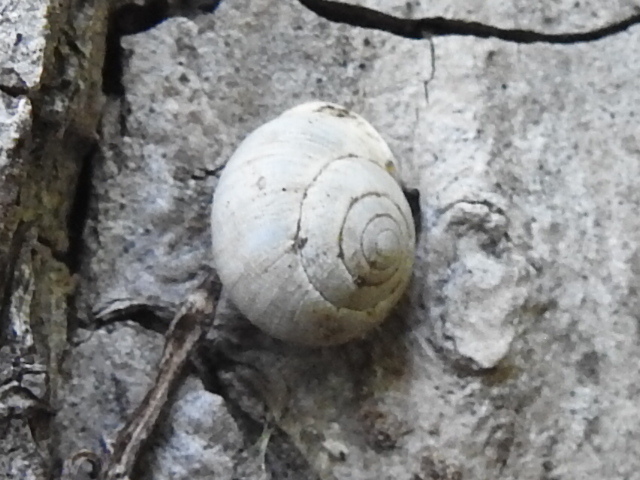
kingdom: Animalia
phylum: Mollusca
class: Gastropoda
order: Cycloneritida
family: Helicinidae
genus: Helicina
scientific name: Helicina orbiculata
